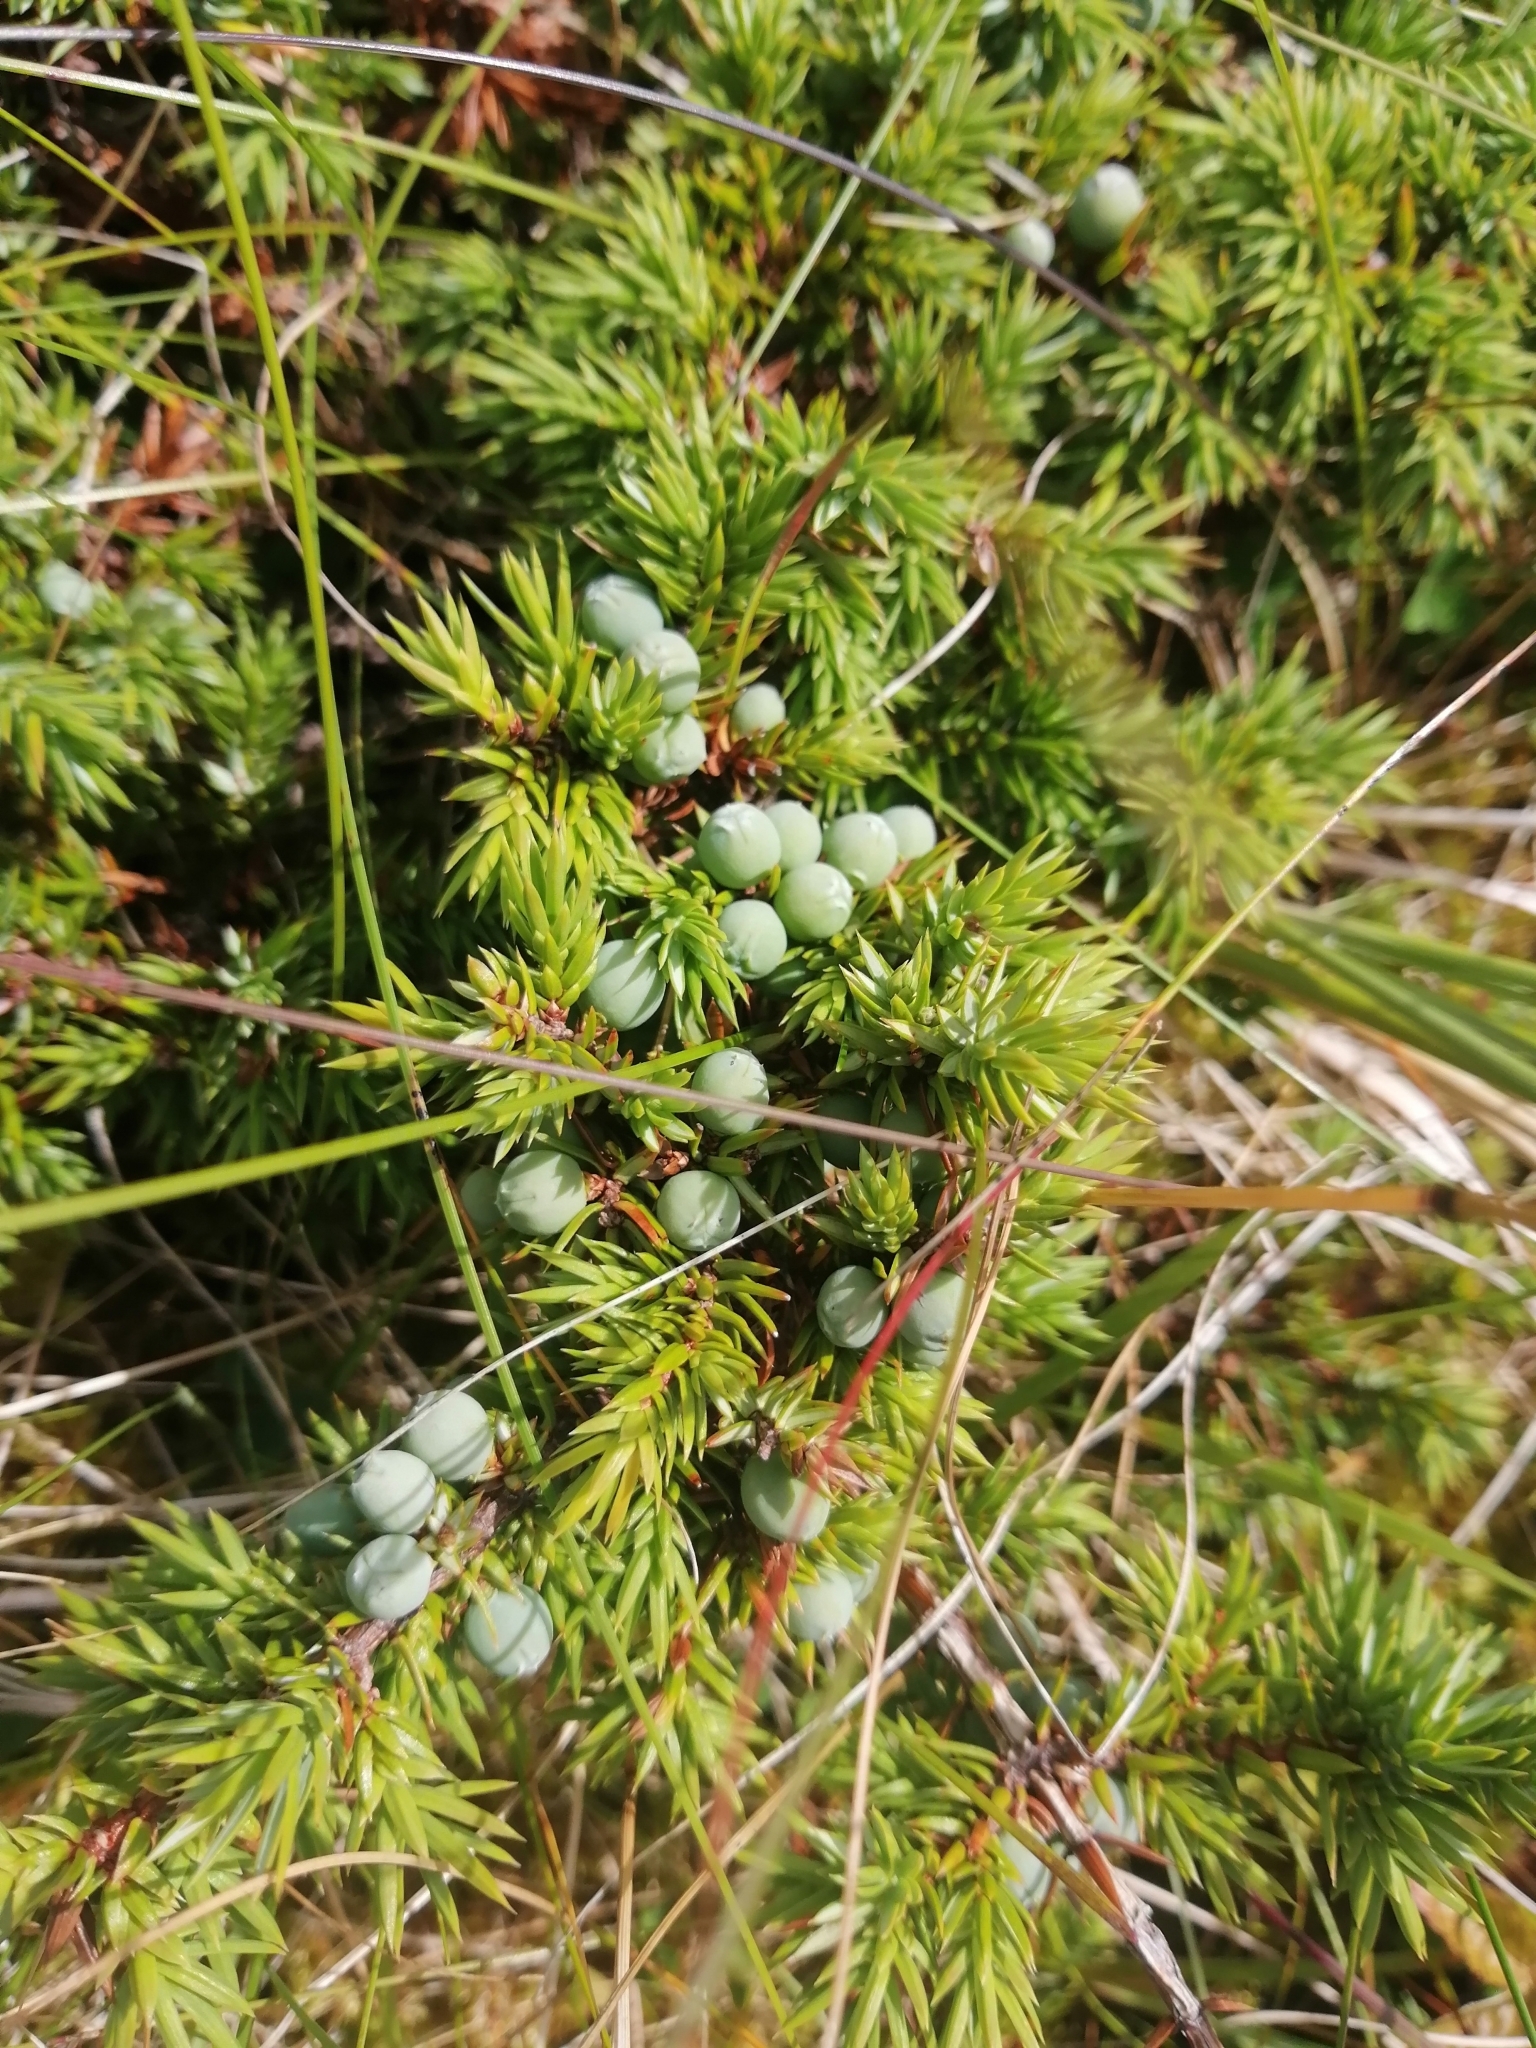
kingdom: Plantae
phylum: Tracheophyta
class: Pinopsida
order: Pinales
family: Cupressaceae
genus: Juniperus
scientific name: Juniperus communis
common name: Common juniper
